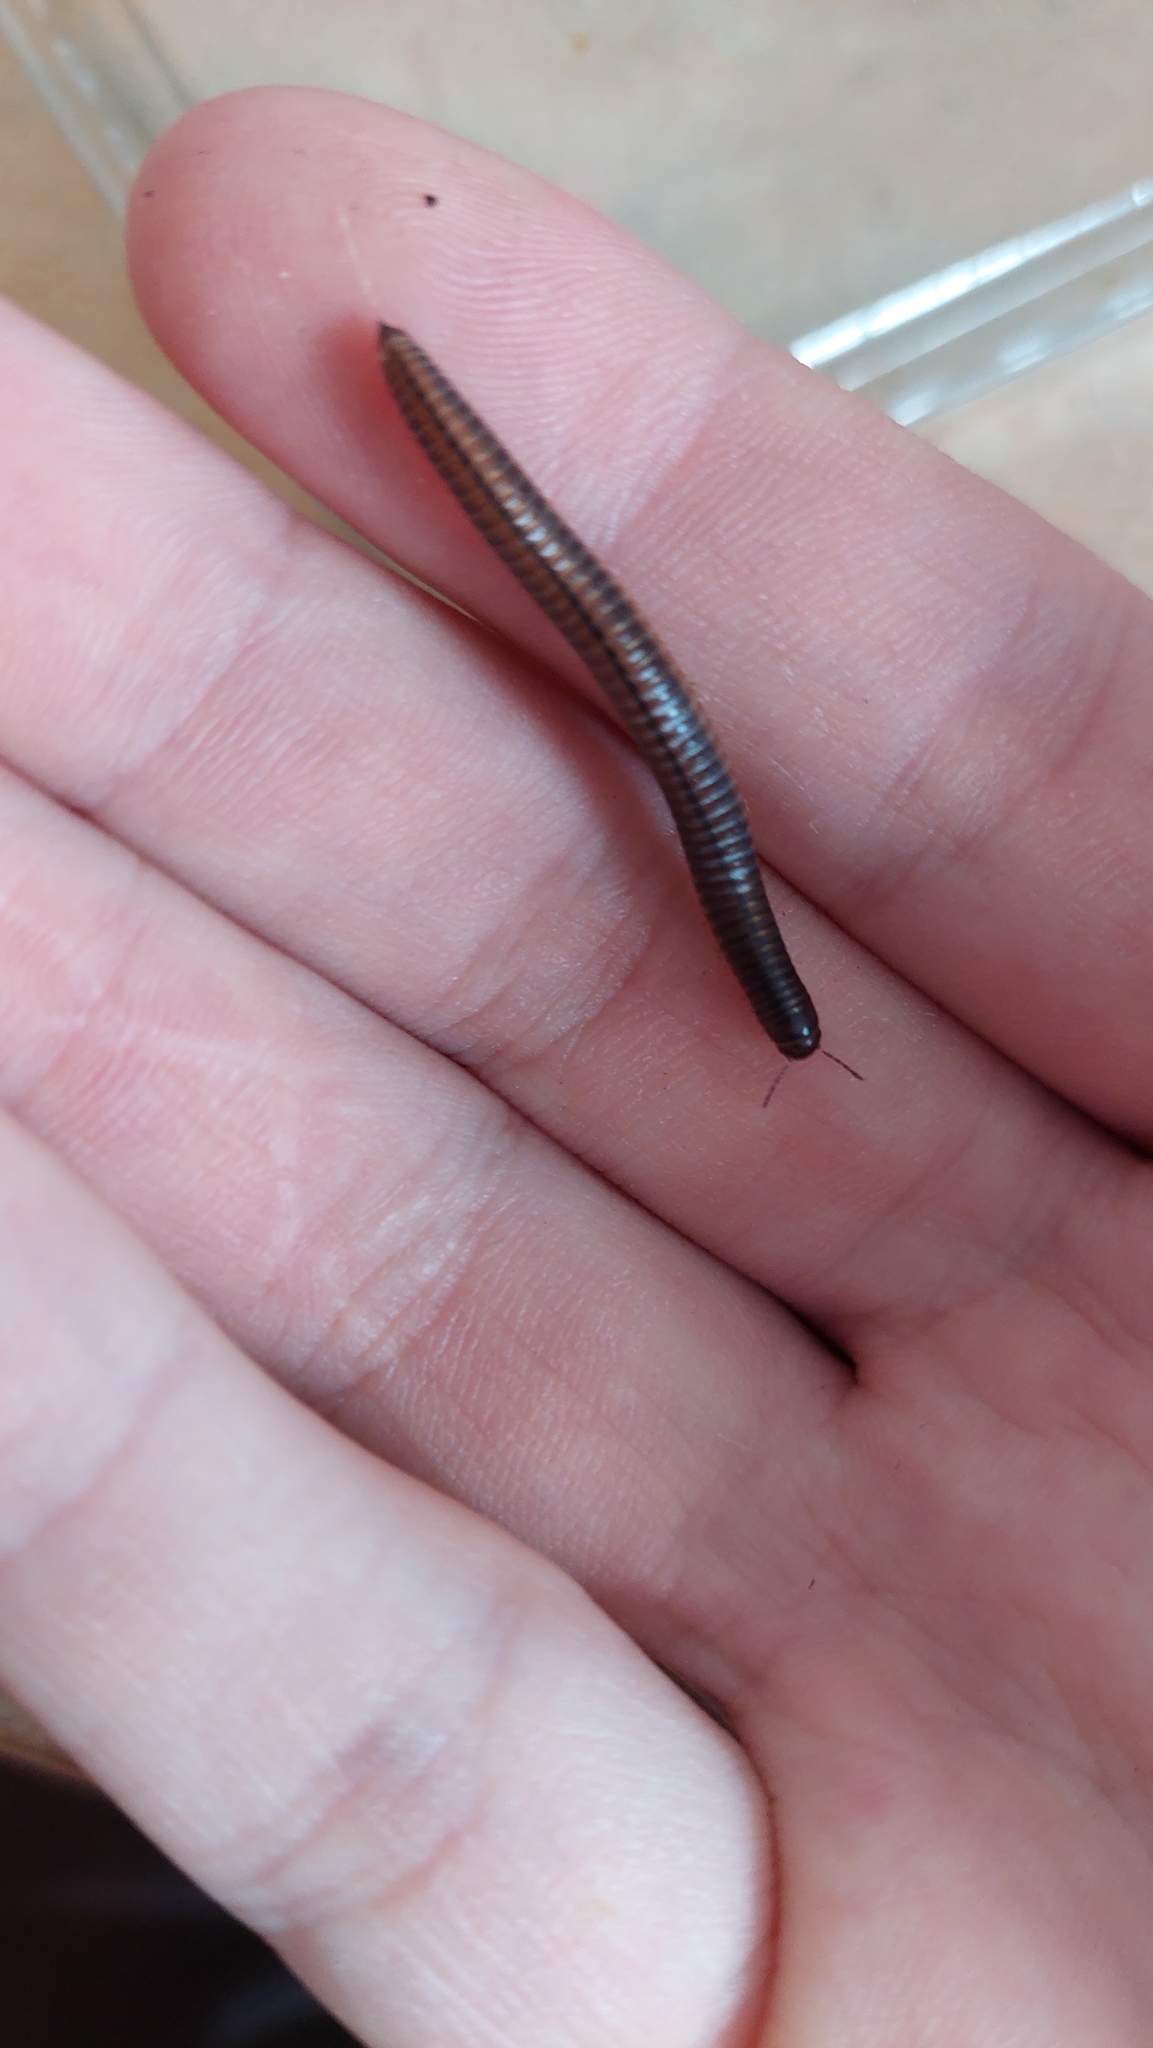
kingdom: Animalia
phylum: Arthropoda
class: Diplopoda
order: Julida
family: Julidae
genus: Megaphyllum
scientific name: Megaphyllum projectum
